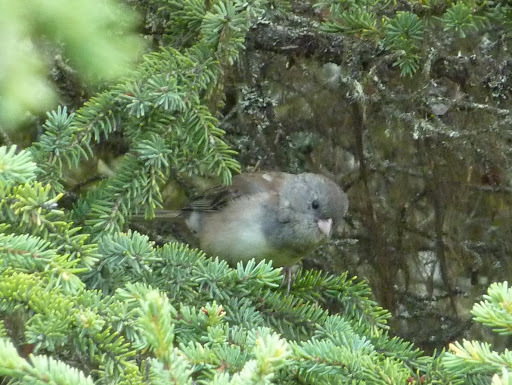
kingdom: Animalia
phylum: Chordata
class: Aves
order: Passeriformes
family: Passerellidae
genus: Junco
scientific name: Junco hyemalis
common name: Dark-eyed junco
